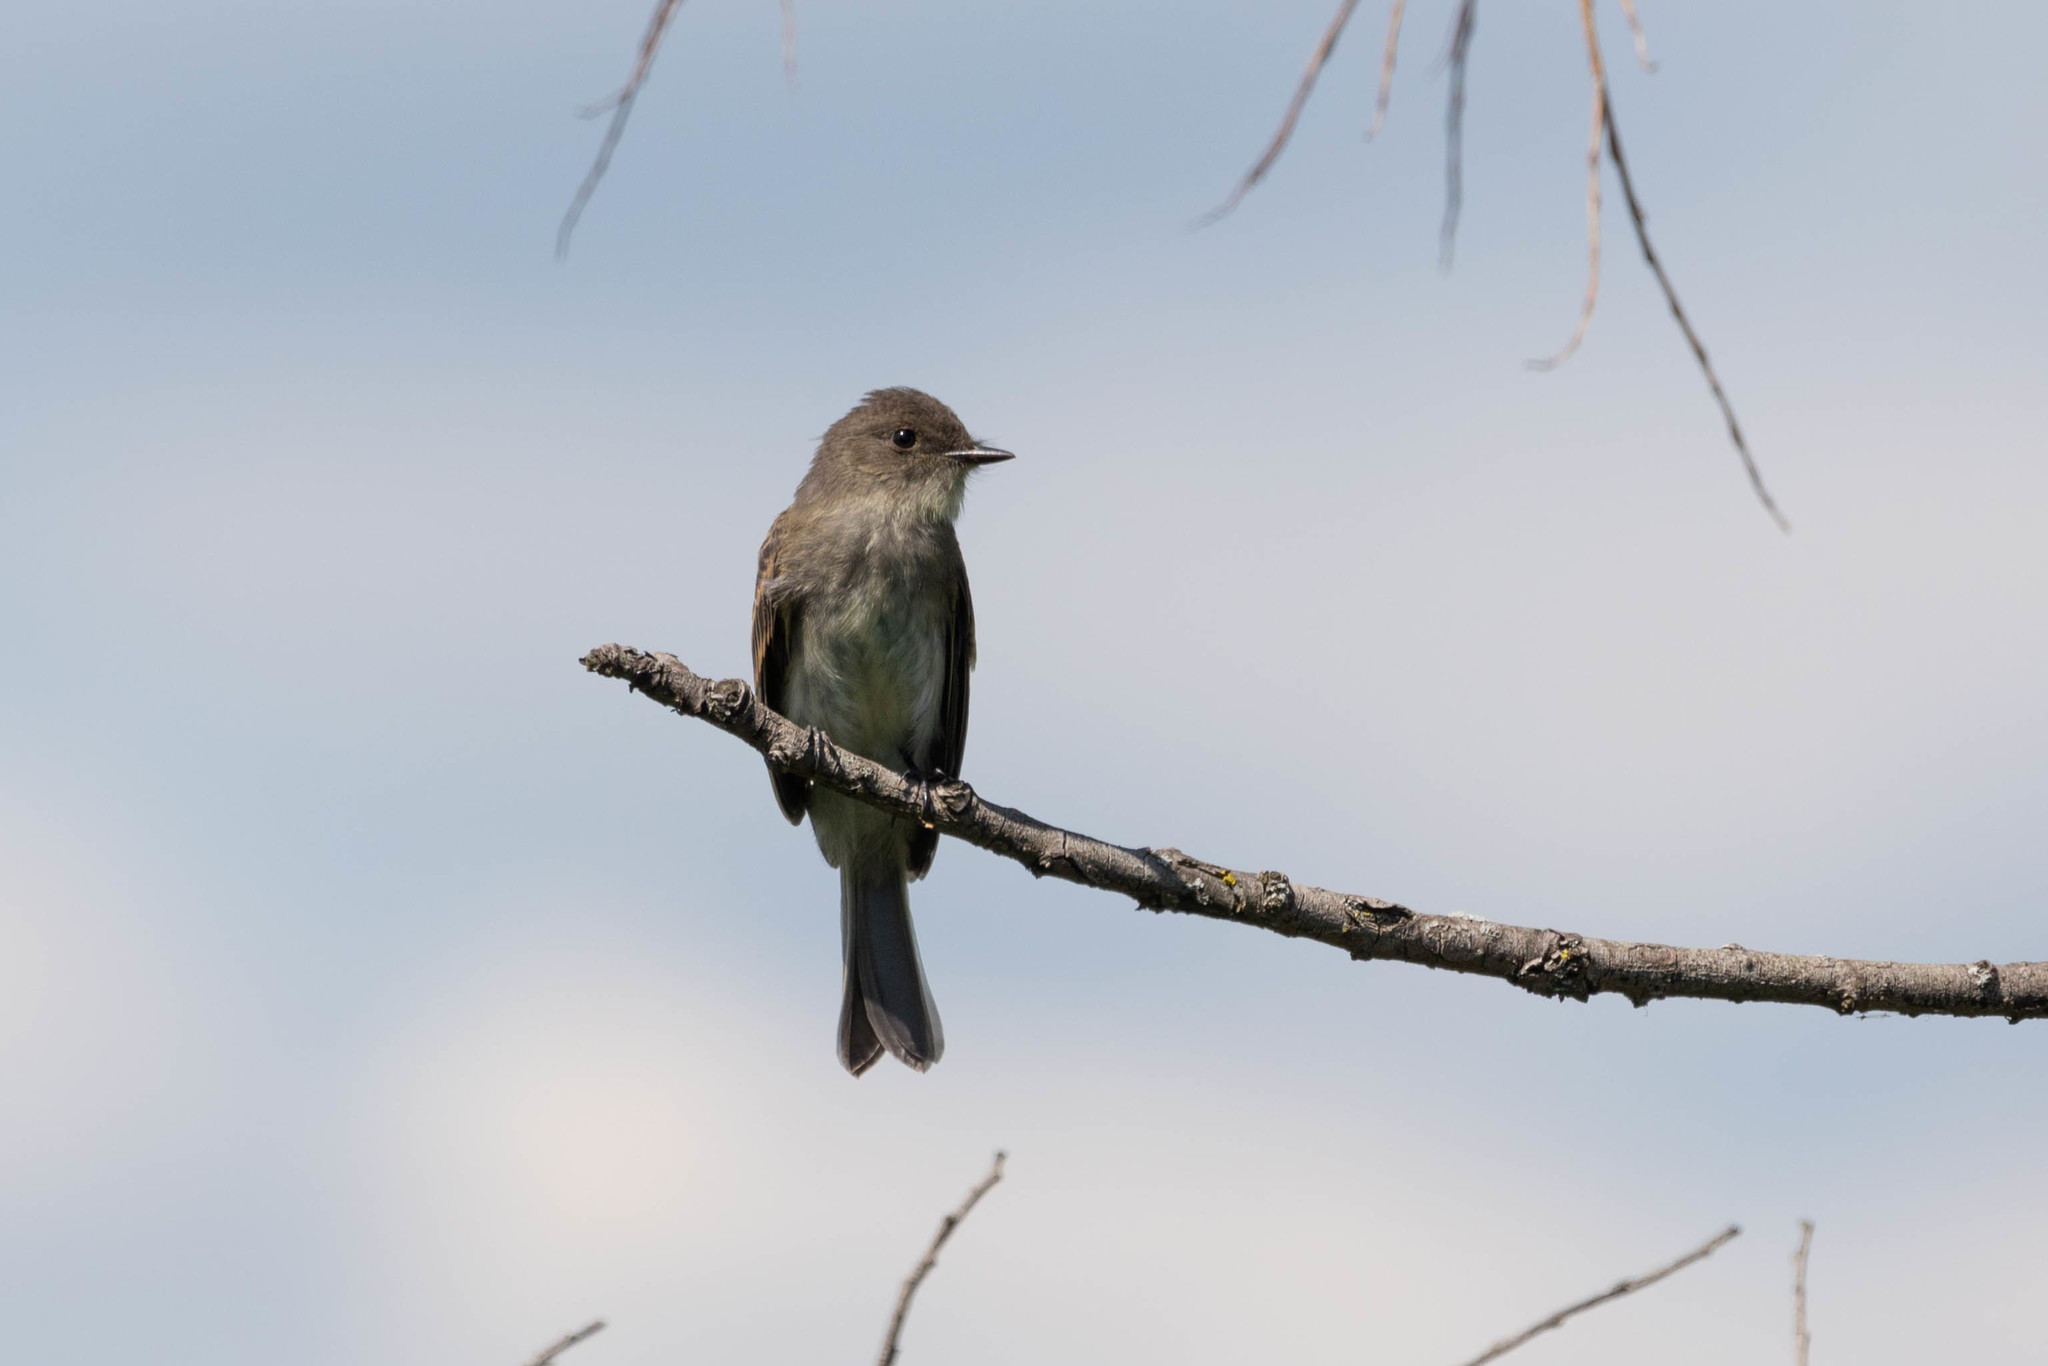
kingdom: Animalia
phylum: Chordata
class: Aves
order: Passeriformes
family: Tyrannidae
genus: Sayornis
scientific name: Sayornis phoebe
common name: Eastern phoebe
